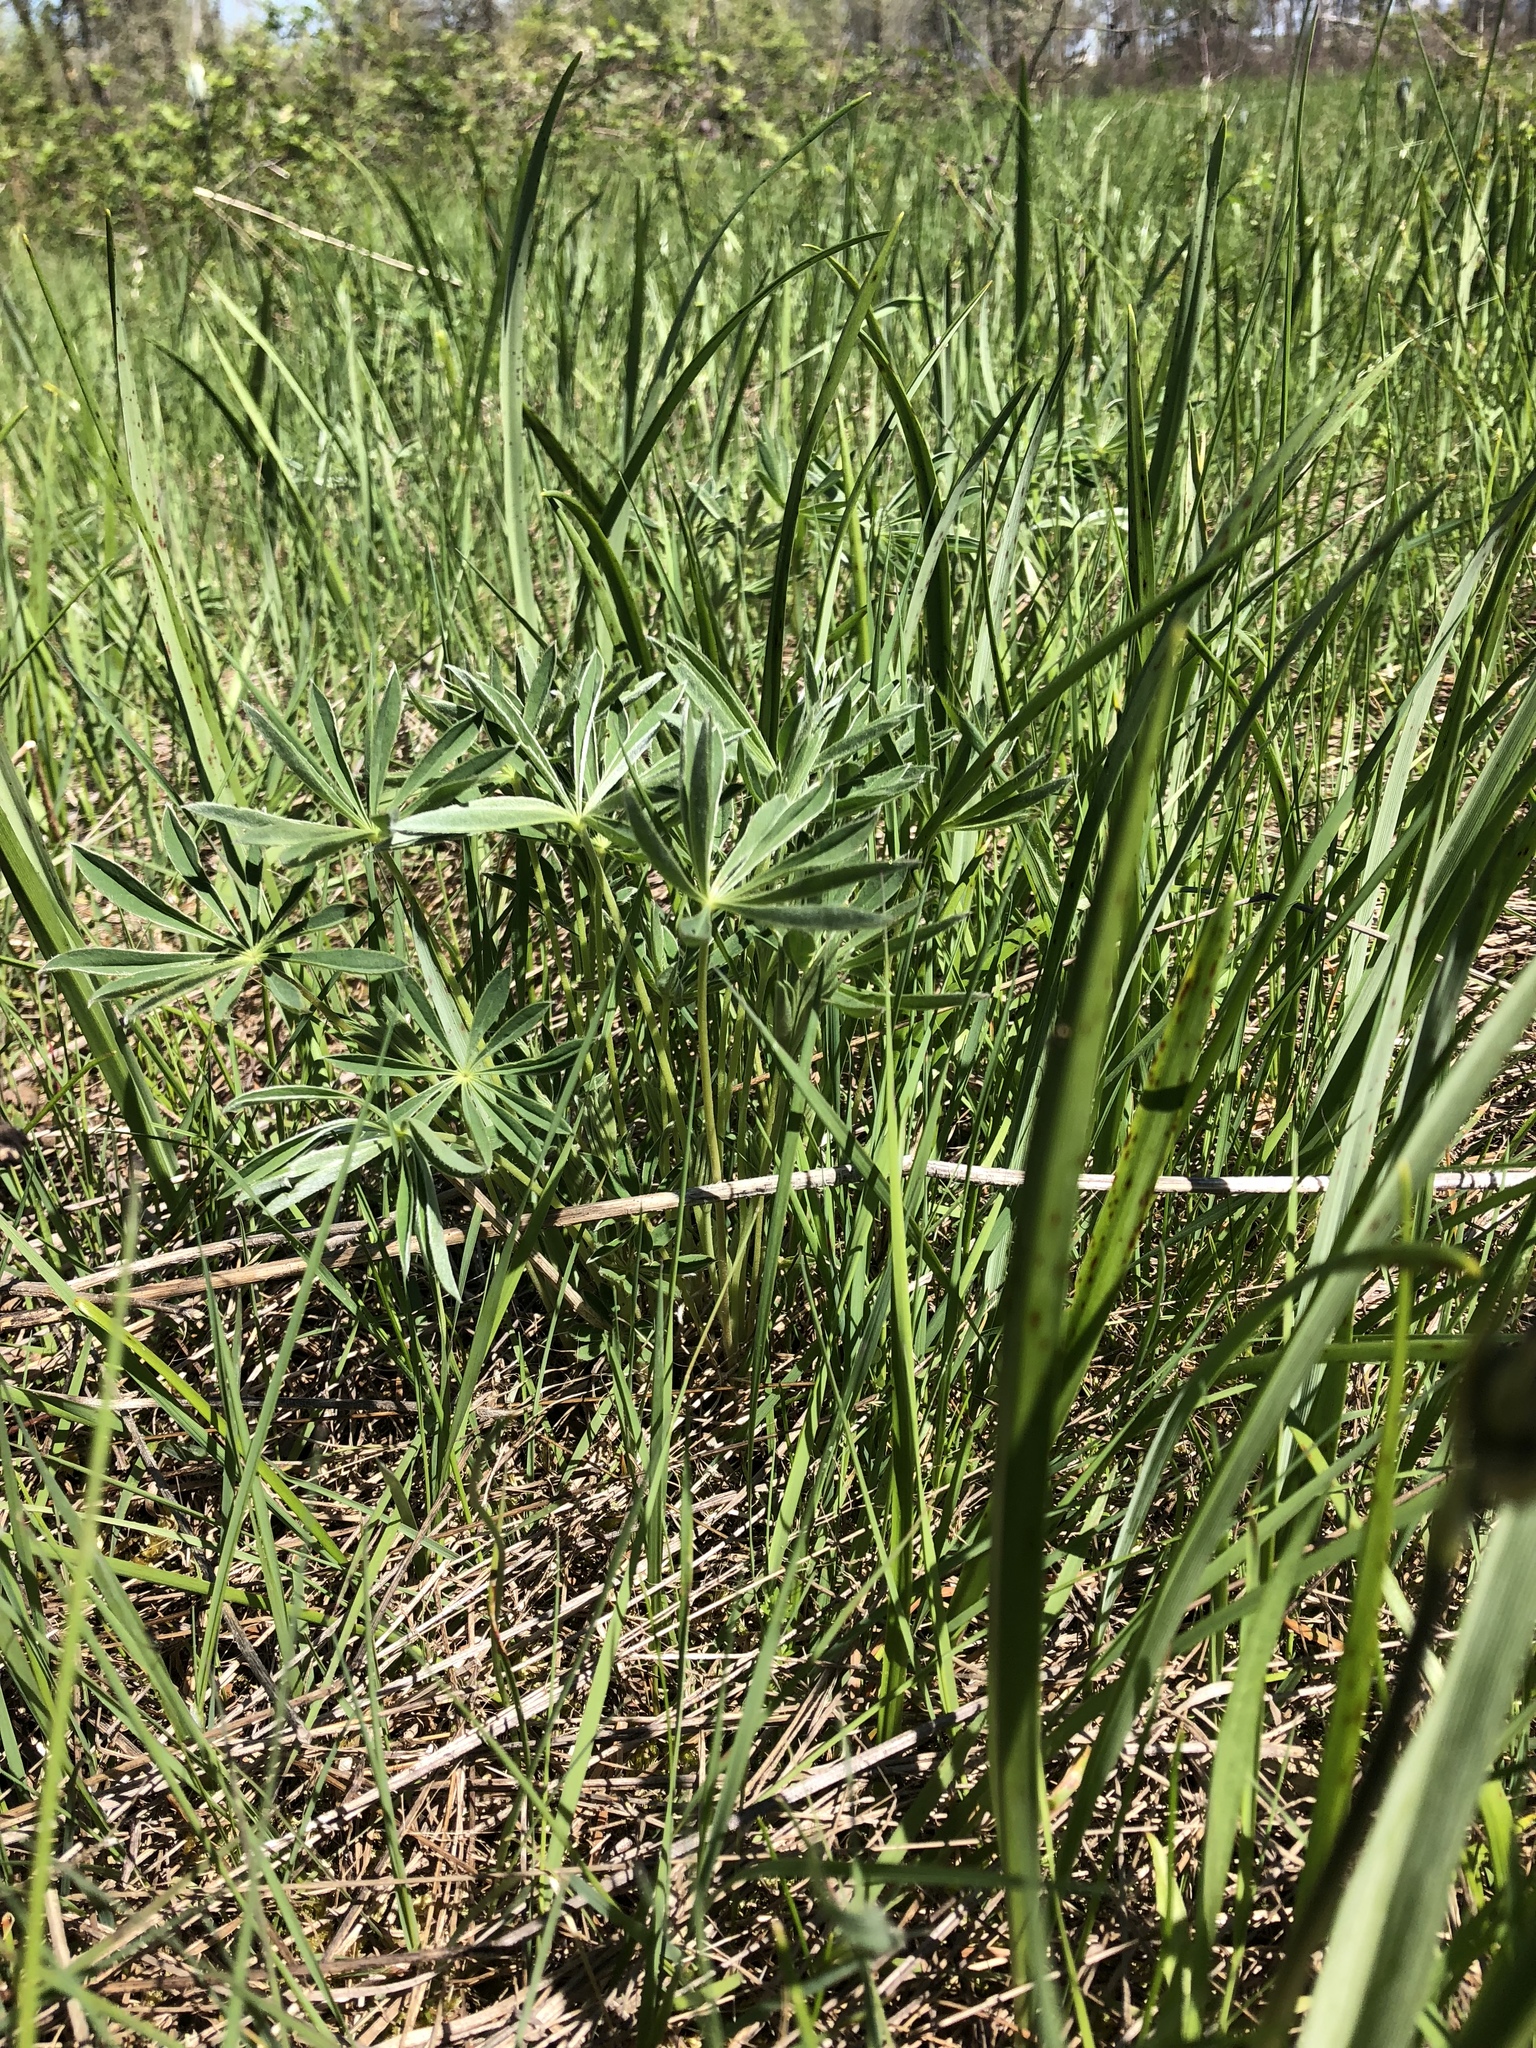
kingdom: Plantae
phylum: Tracheophyta
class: Magnoliopsida
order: Fabales
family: Fabaceae
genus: Lupinus
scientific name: Lupinus oreganus
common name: Kincaid's lupine
